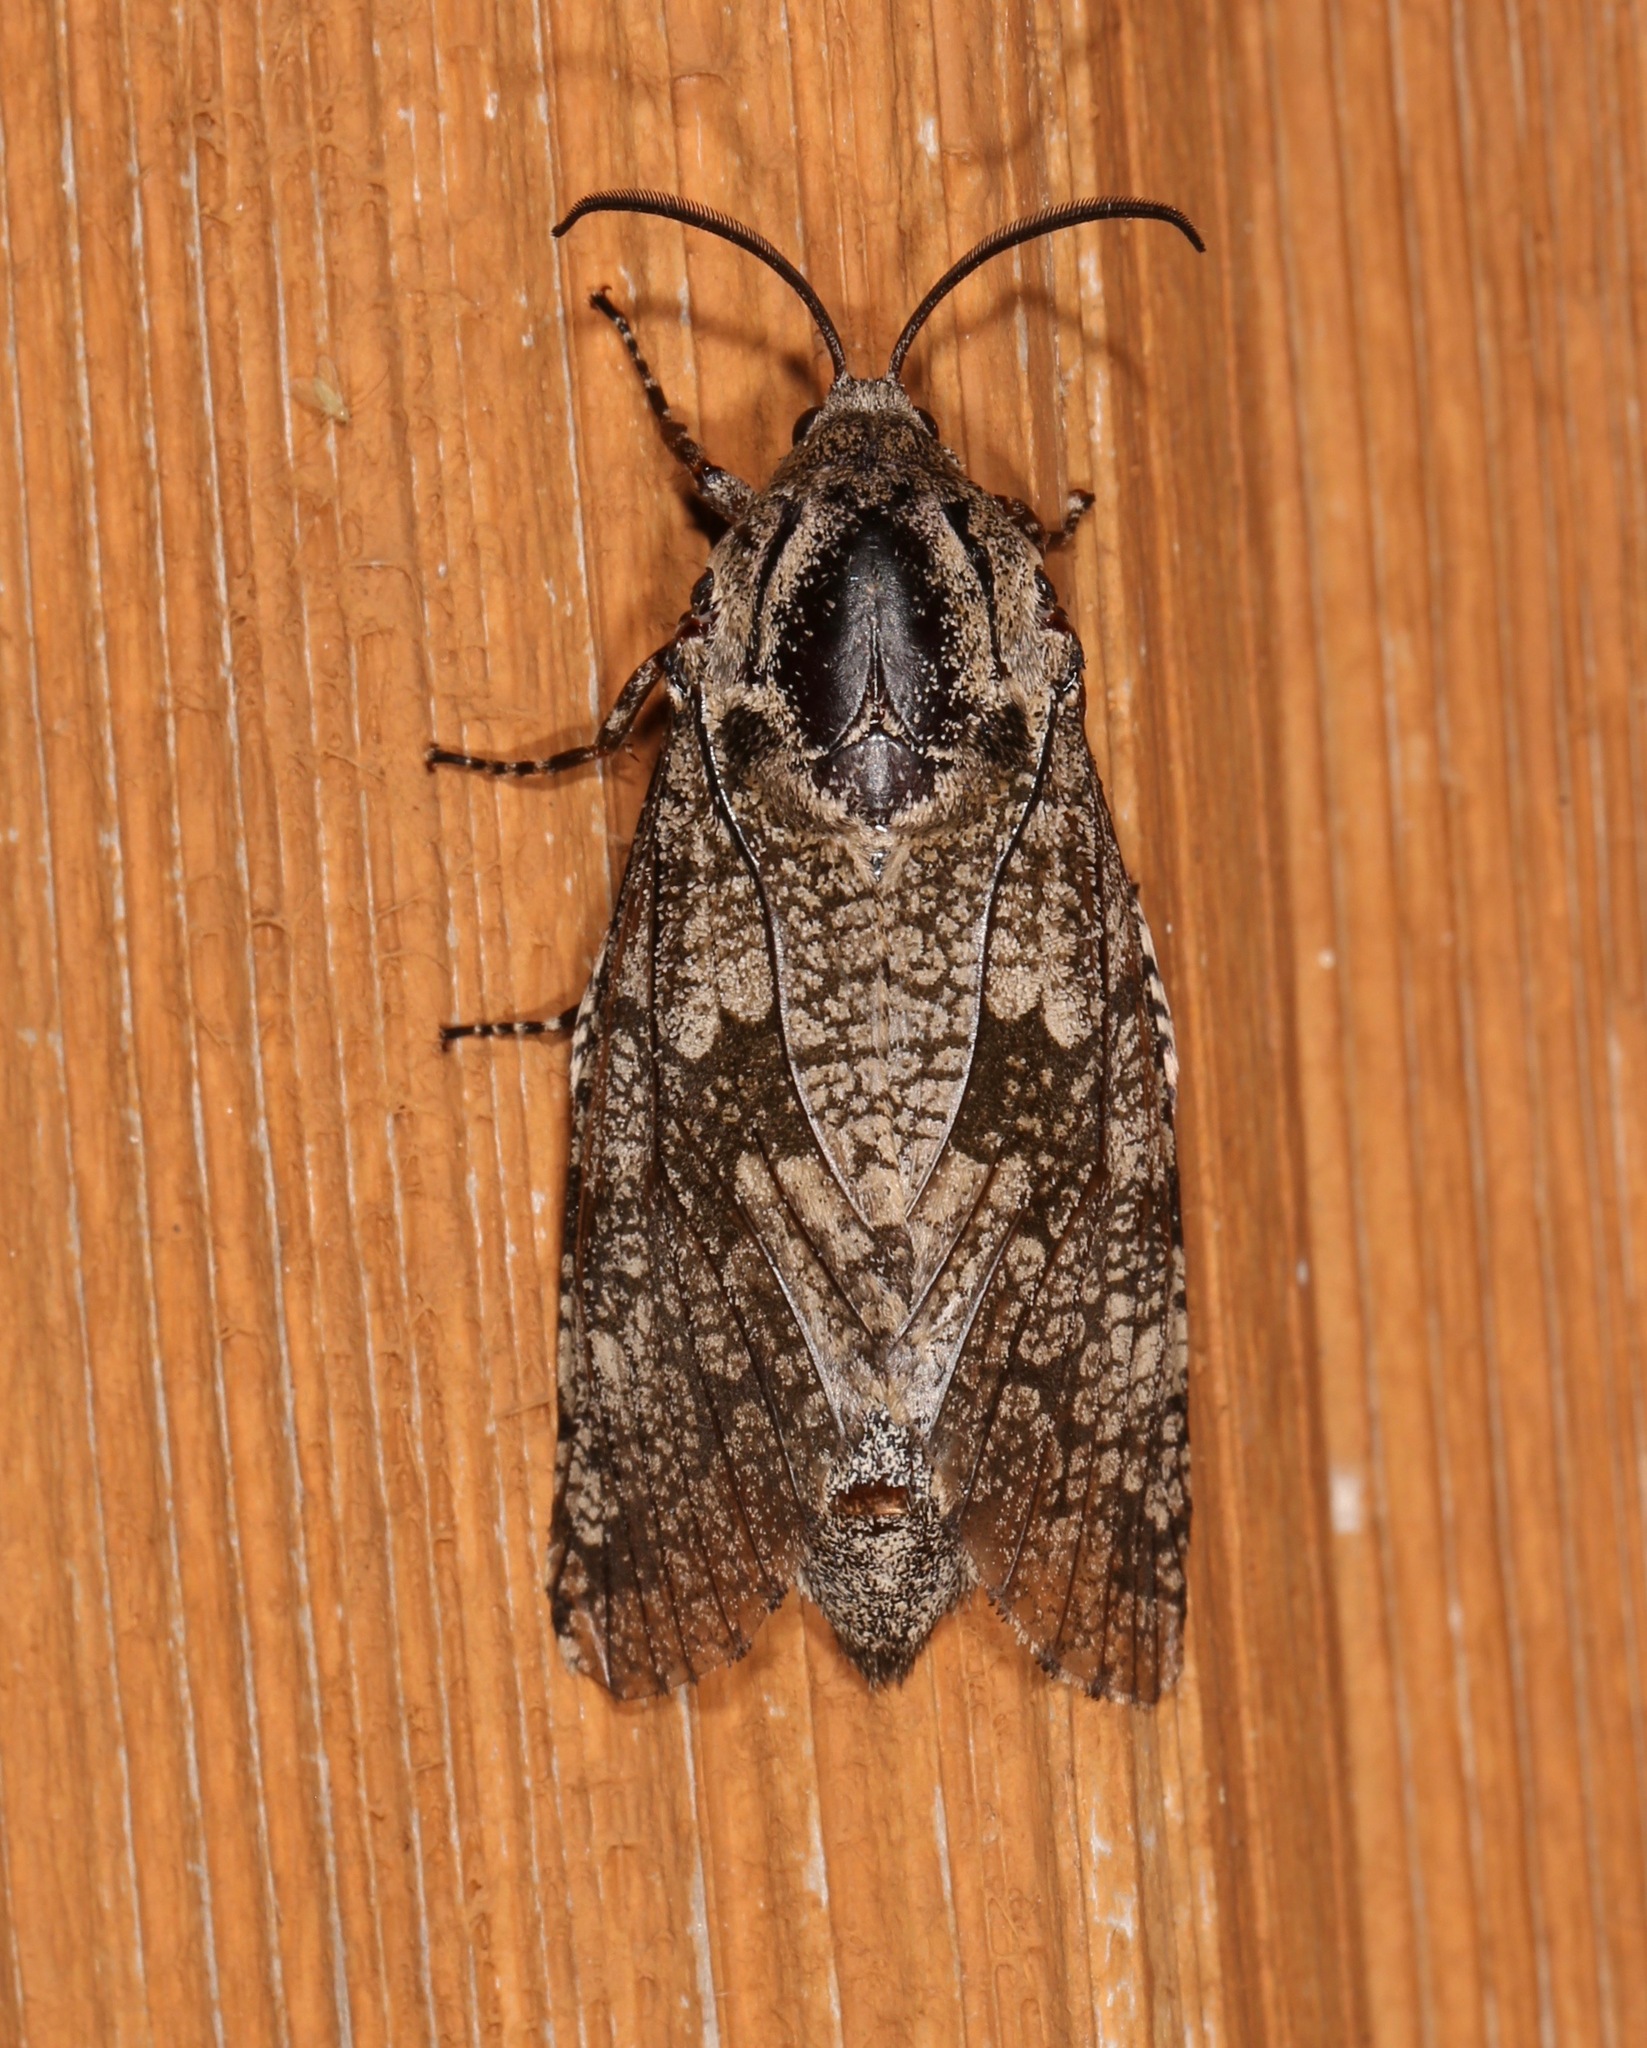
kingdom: Animalia
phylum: Arthropoda
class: Insecta
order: Lepidoptera
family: Cossidae
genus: Prionoxystus
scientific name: Prionoxystus robiniae
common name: Carpenterworm
